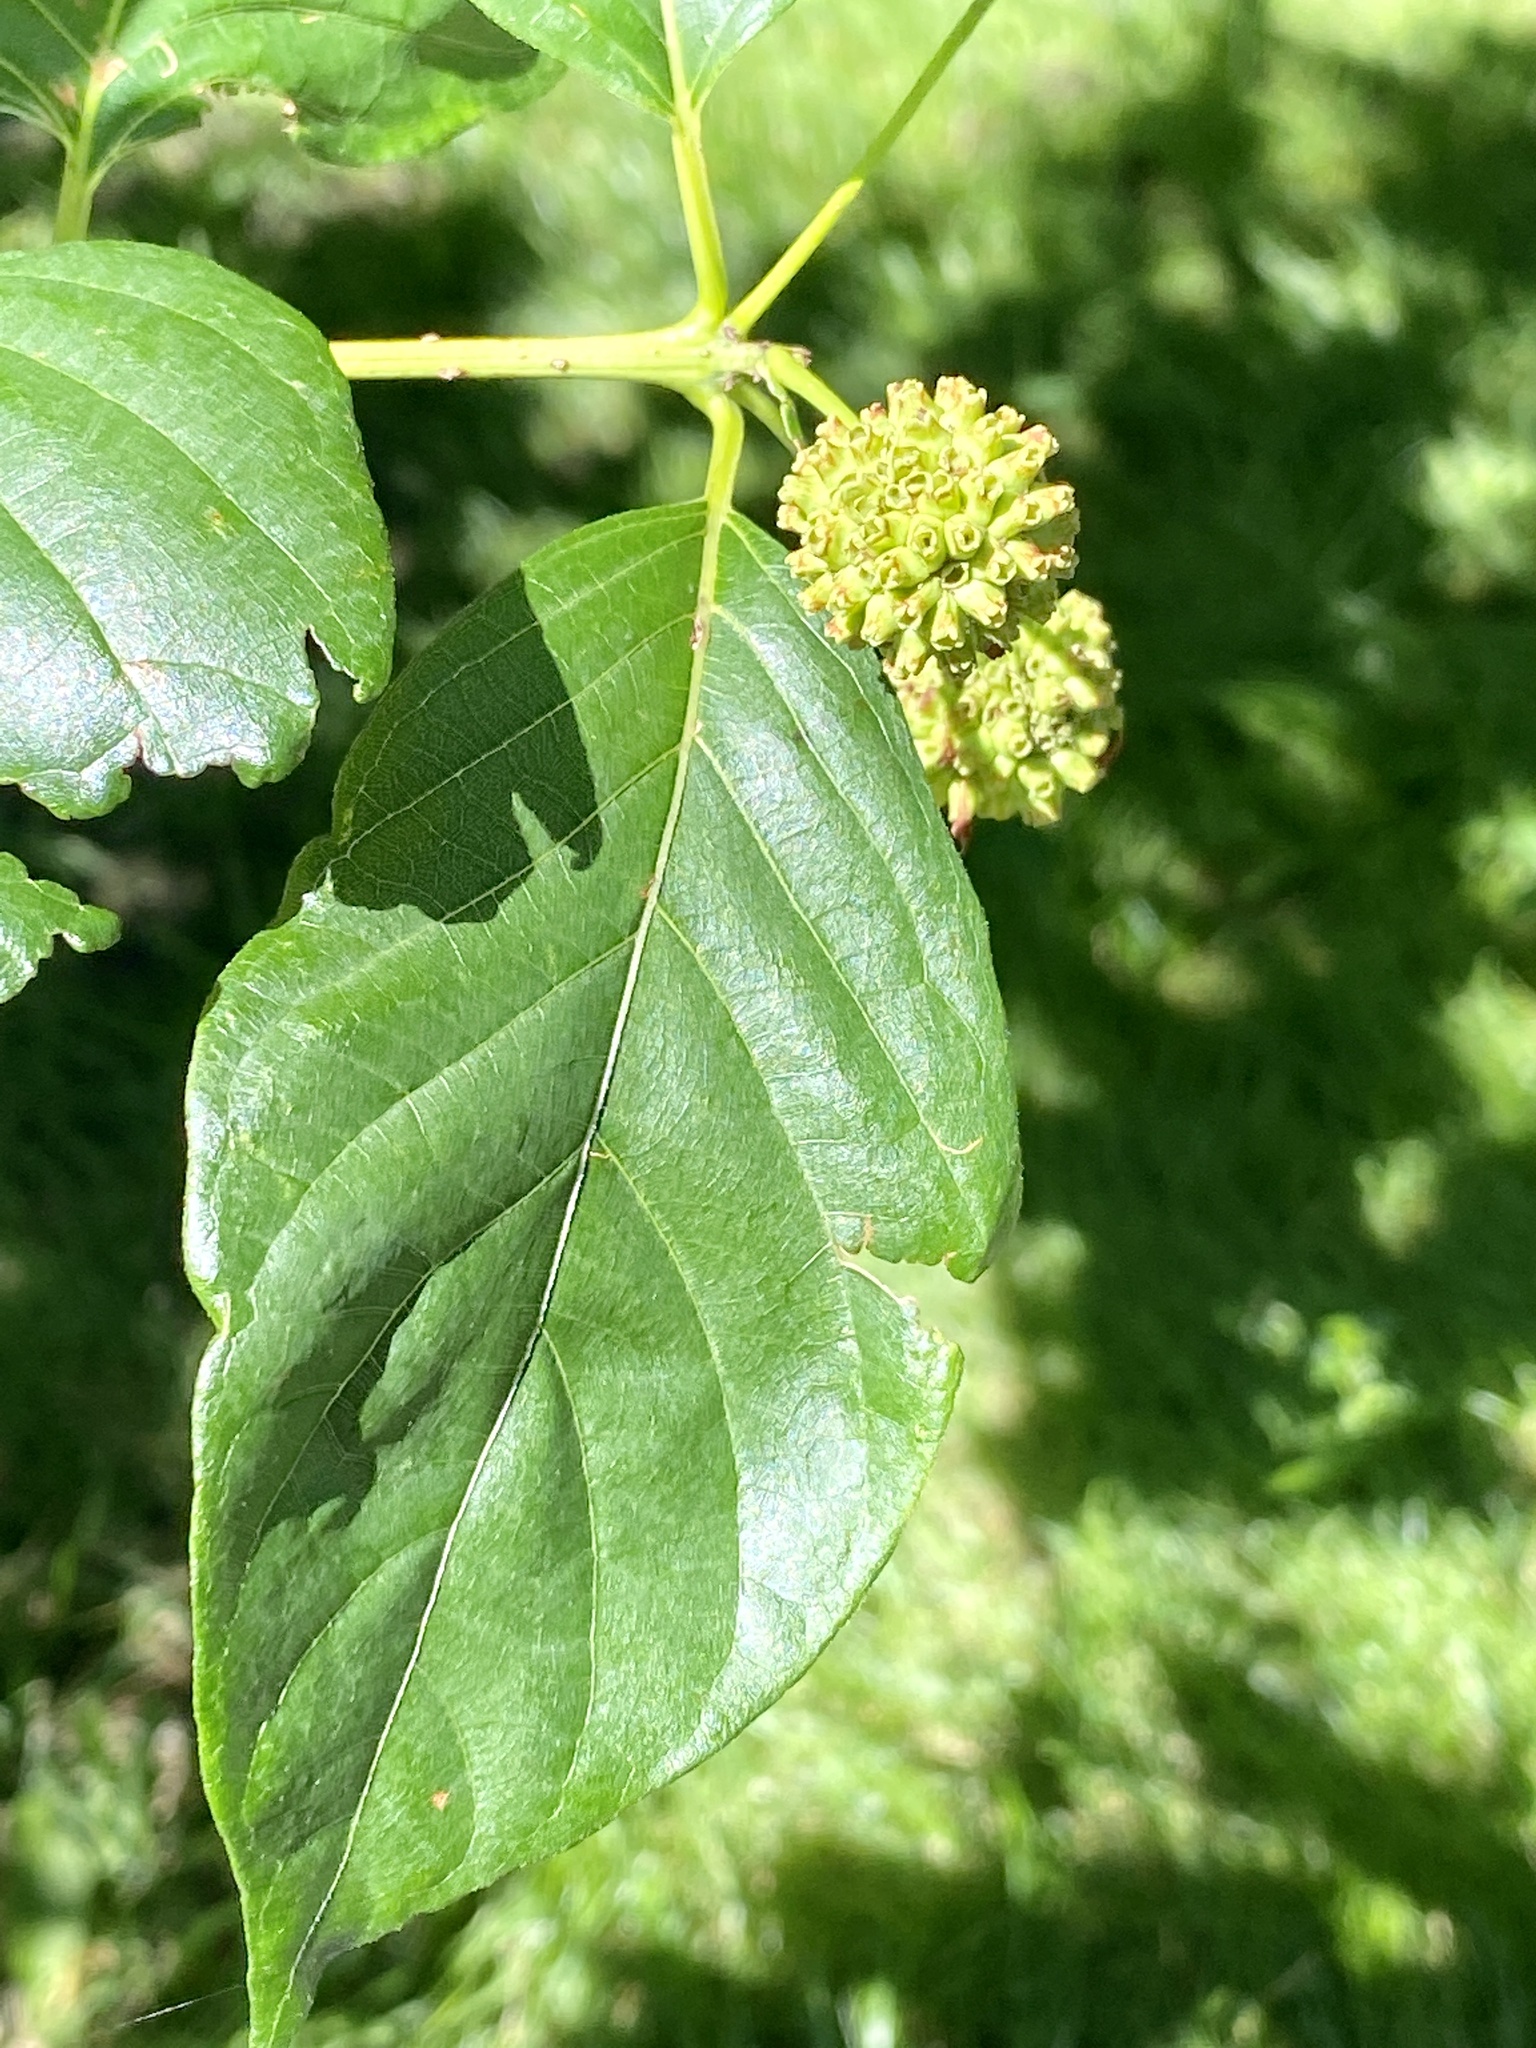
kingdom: Plantae
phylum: Tracheophyta
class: Magnoliopsida
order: Gentianales
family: Rubiaceae
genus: Cephalanthus
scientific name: Cephalanthus occidentalis
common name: Button-willow
